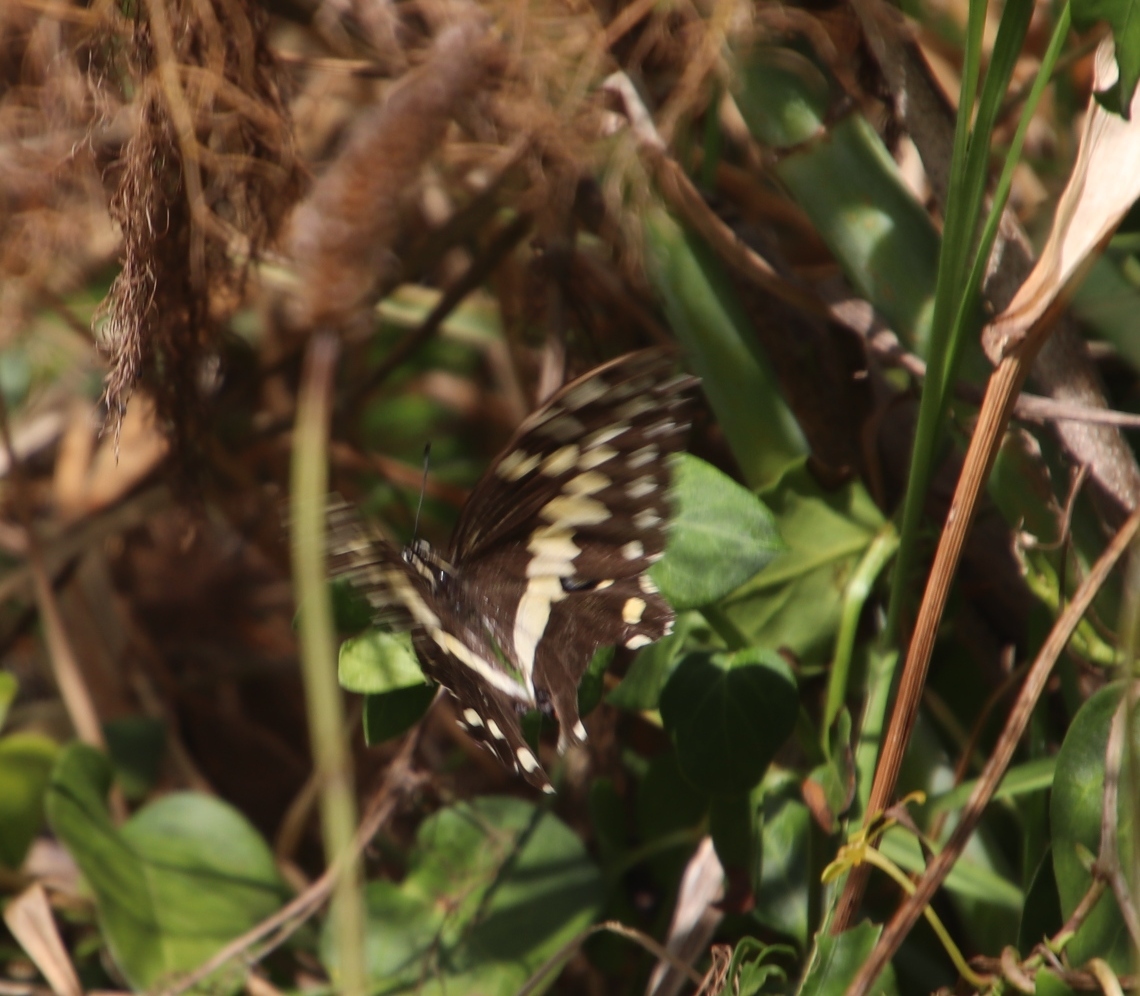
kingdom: Animalia
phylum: Arthropoda
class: Insecta
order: Lepidoptera
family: Papilionidae
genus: Papilio
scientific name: Papilio demodocus
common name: Christmas butterfly
